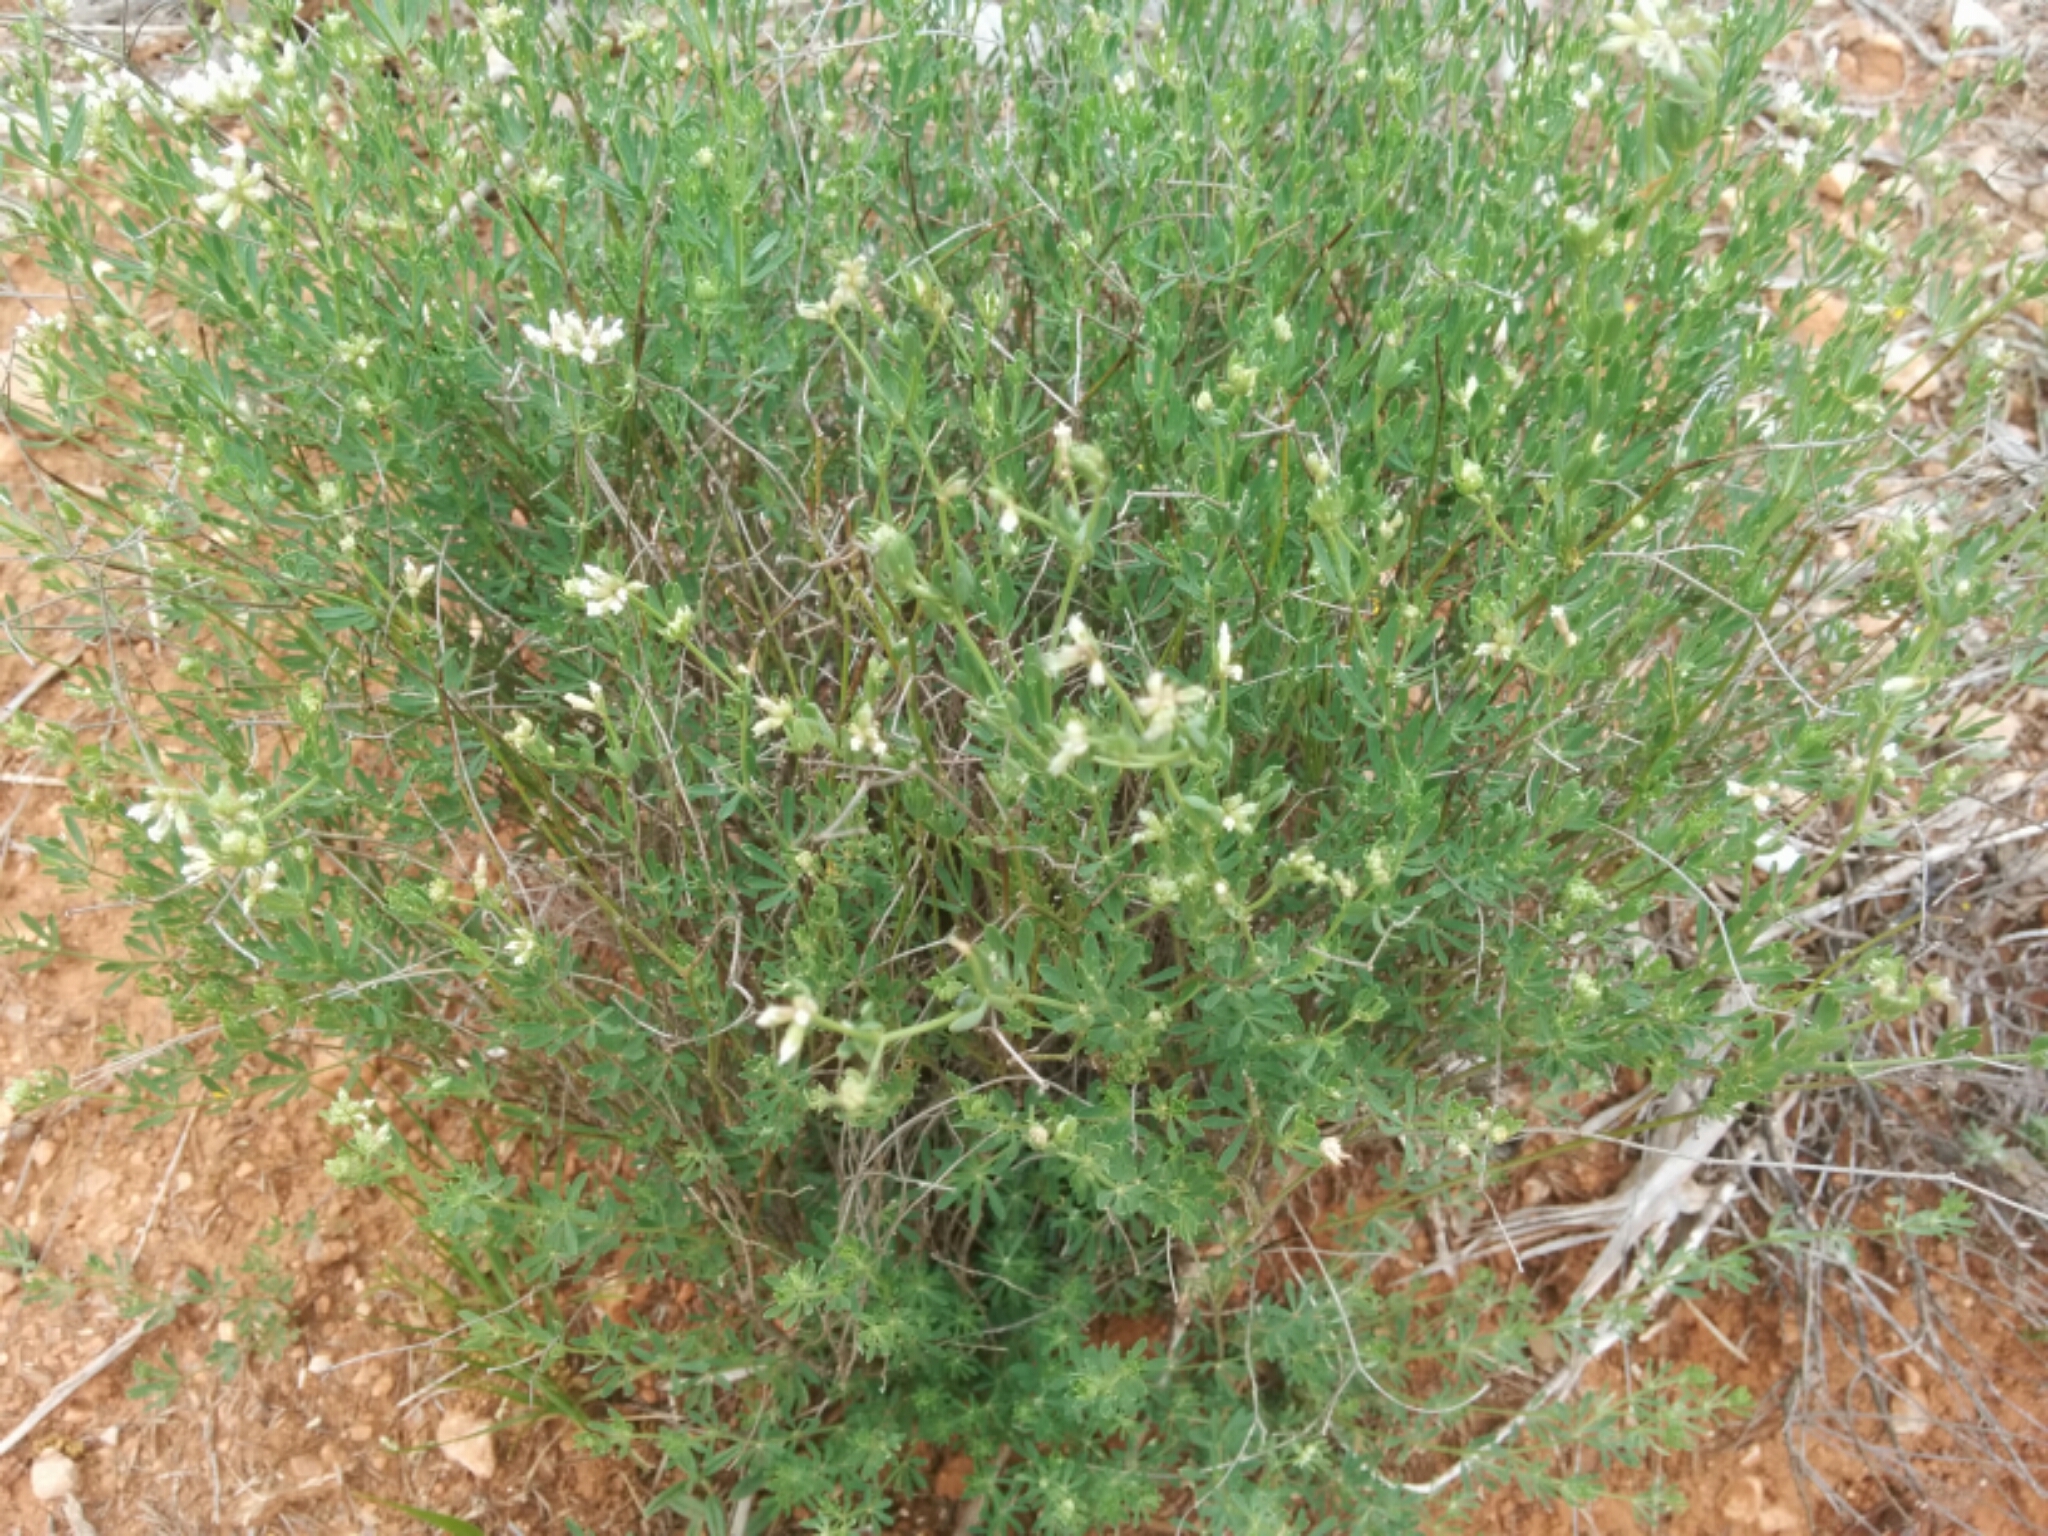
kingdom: Plantae
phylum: Tracheophyta
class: Magnoliopsida
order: Fabales
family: Fabaceae
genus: Lotus
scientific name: Lotus dorycnium
